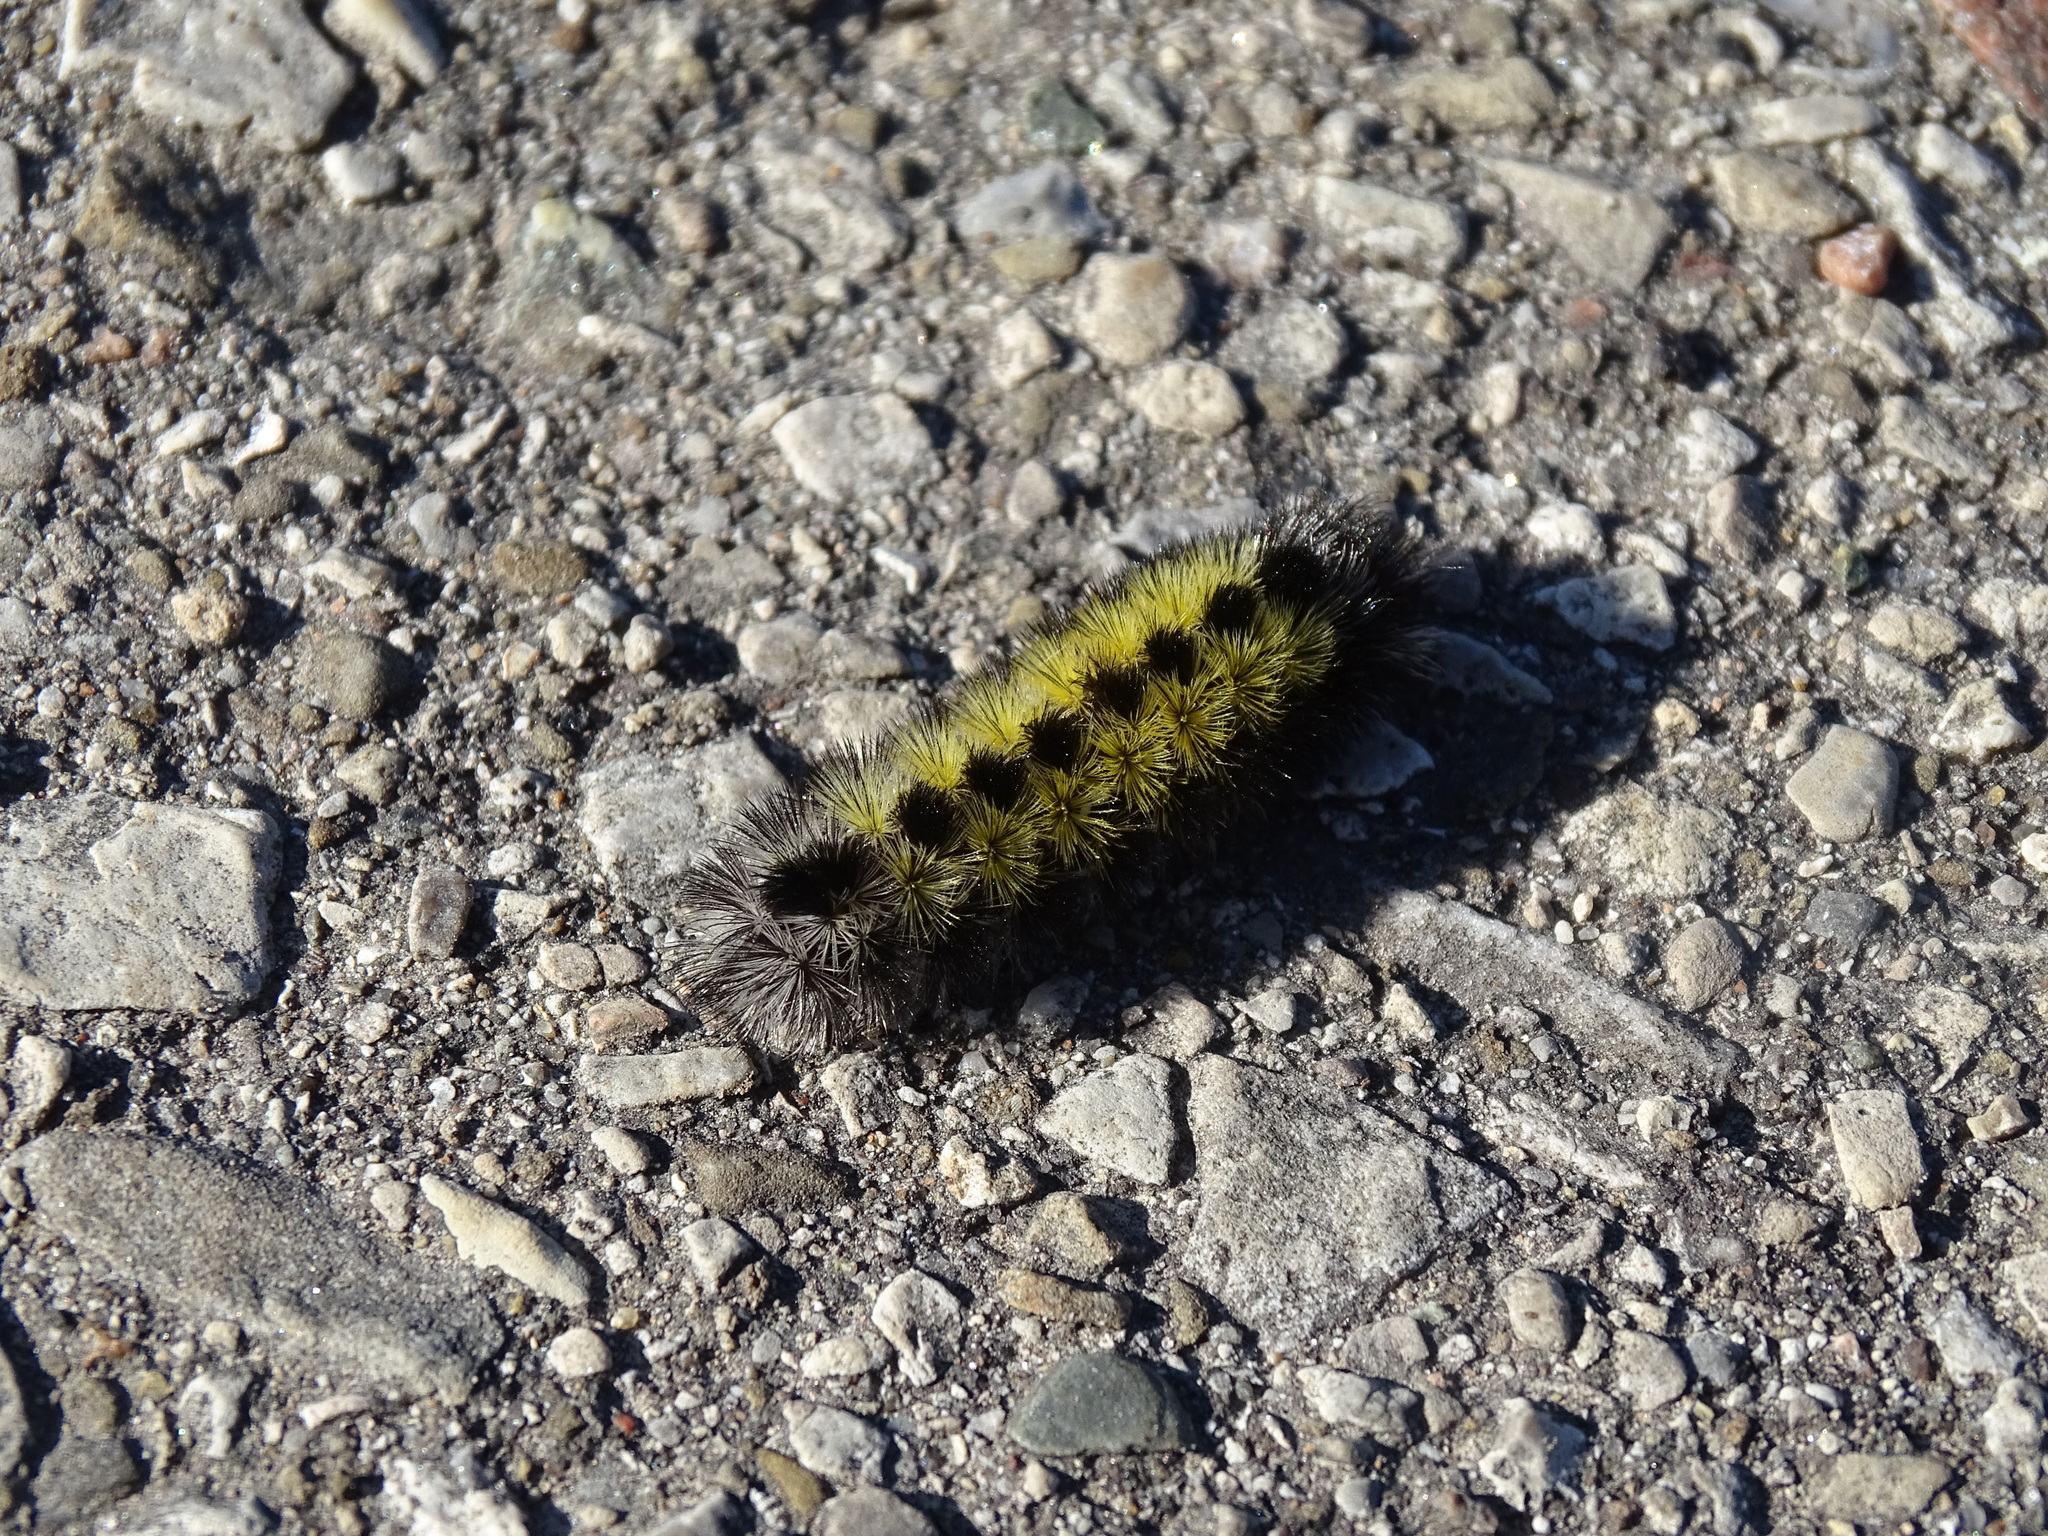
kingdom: Animalia
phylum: Arthropoda
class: Insecta
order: Lepidoptera
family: Erebidae
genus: Ctenucha
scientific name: Ctenucha virginica
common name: Virginia ctenucha moth
